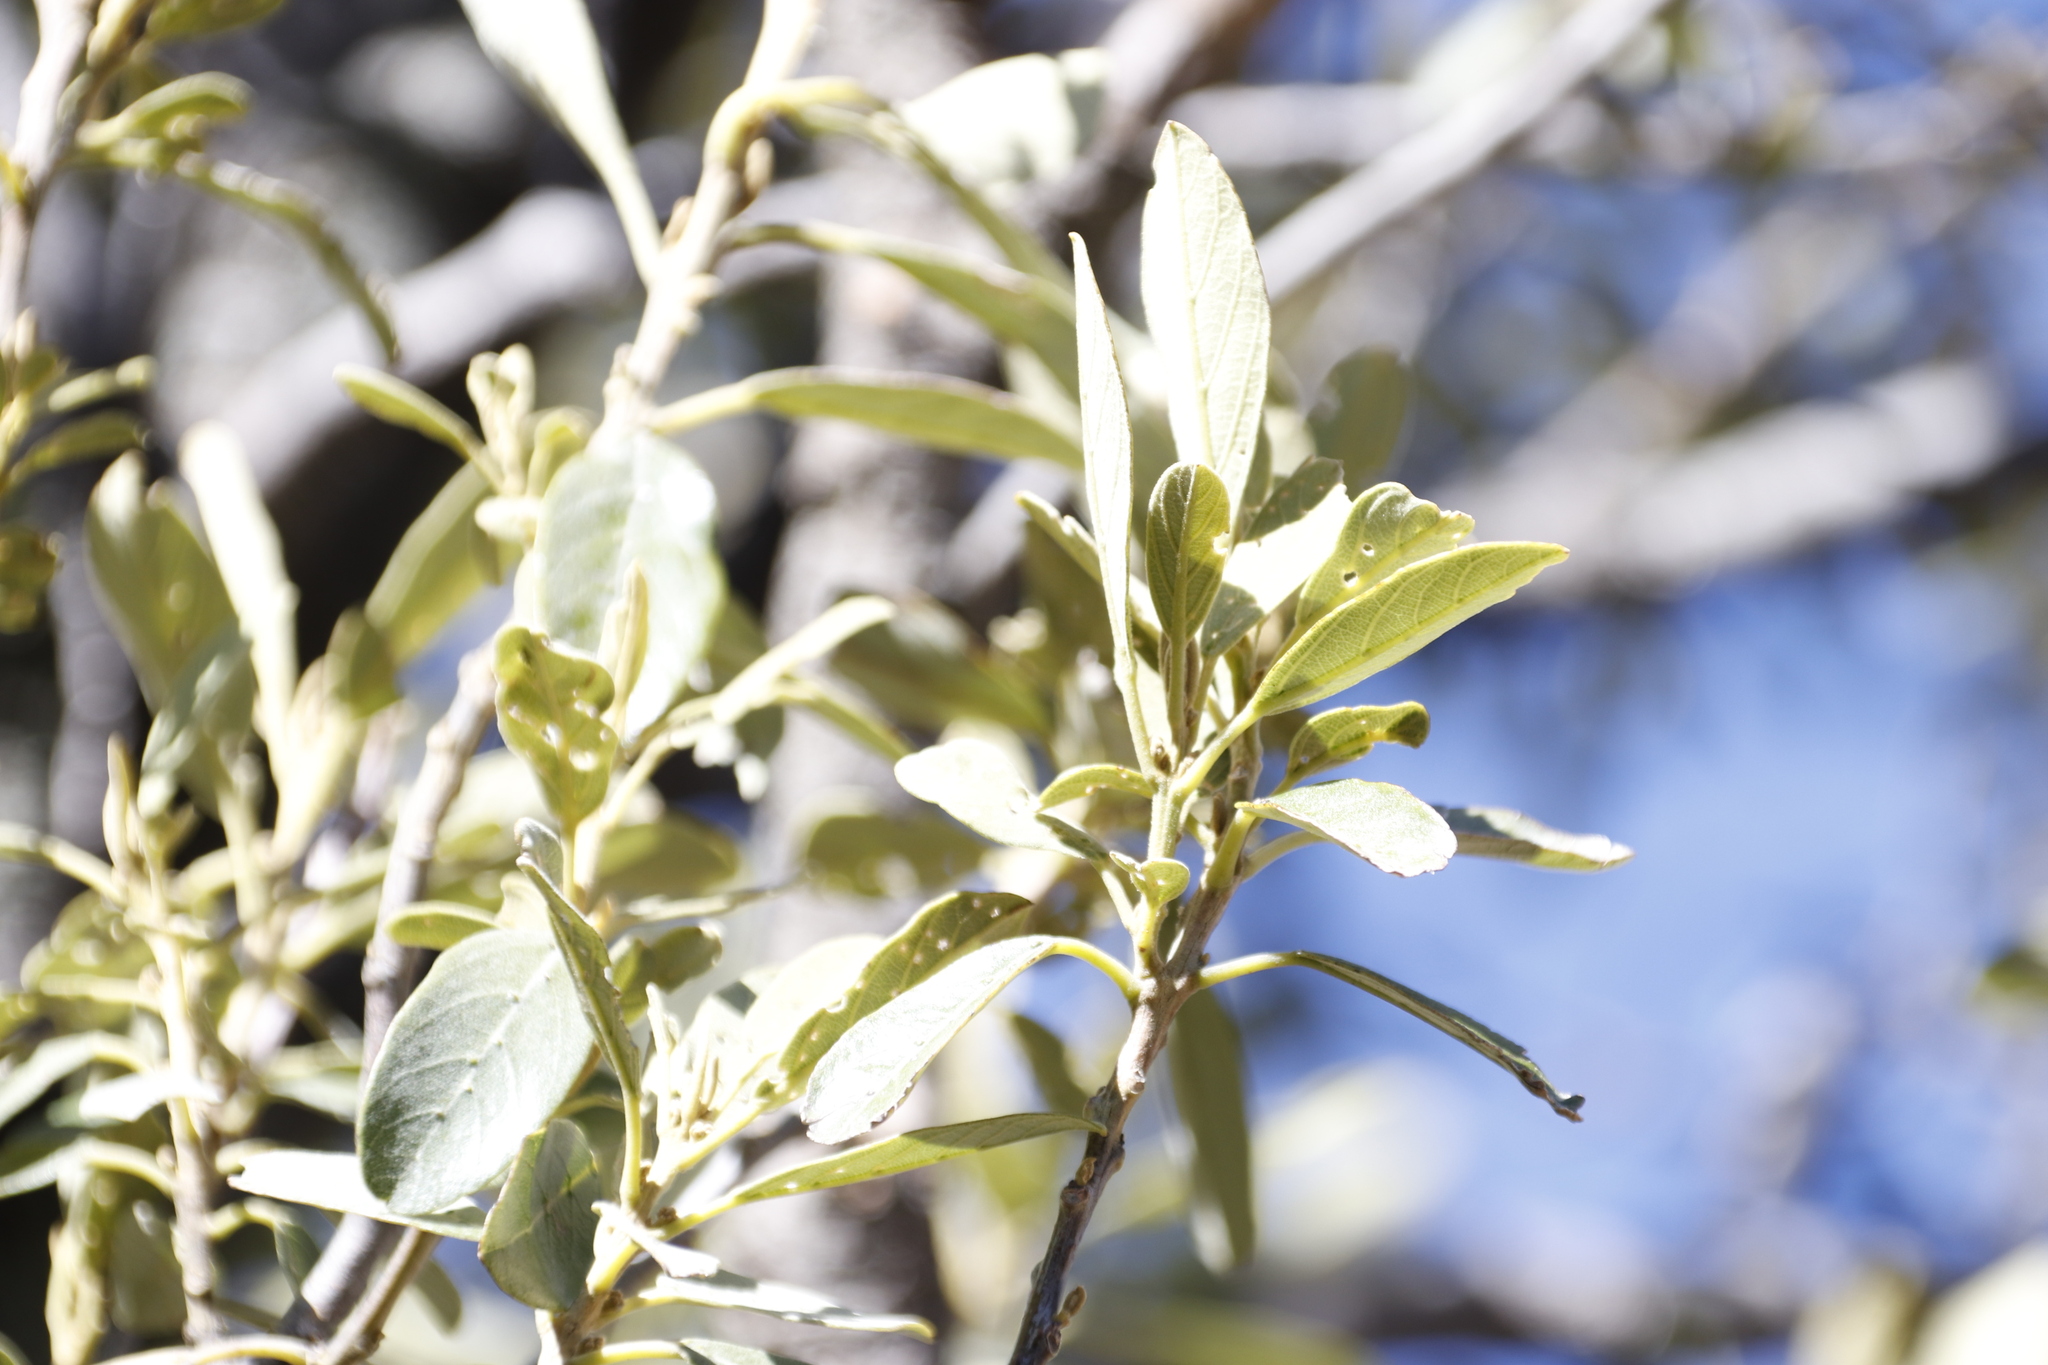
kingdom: Plantae
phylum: Tracheophyta
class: Magnoliopsida
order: Malpighiales
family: Achariaceae
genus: Kiggelaria
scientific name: Kiggelaria africana
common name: Wild peach
